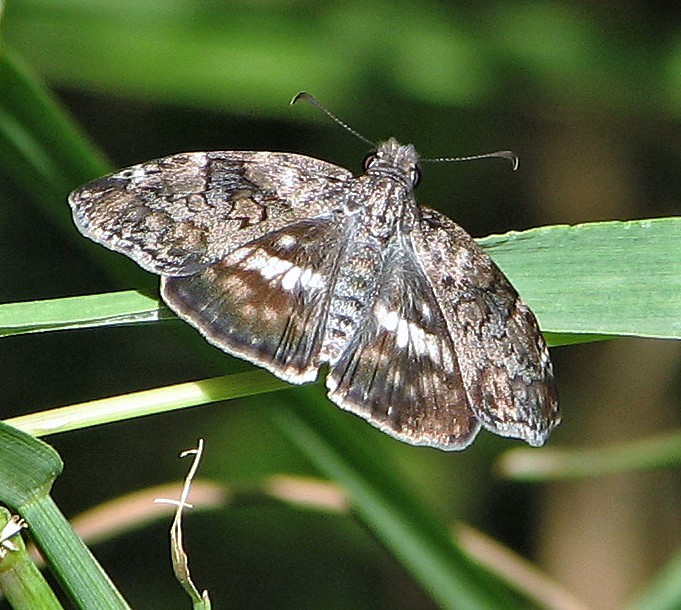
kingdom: Animalia
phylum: Arthropoda
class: Insecta
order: Lepidoptera
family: Hesperiidae
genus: Chiomara
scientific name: Chiomara asychis
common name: White-patterned skipper
